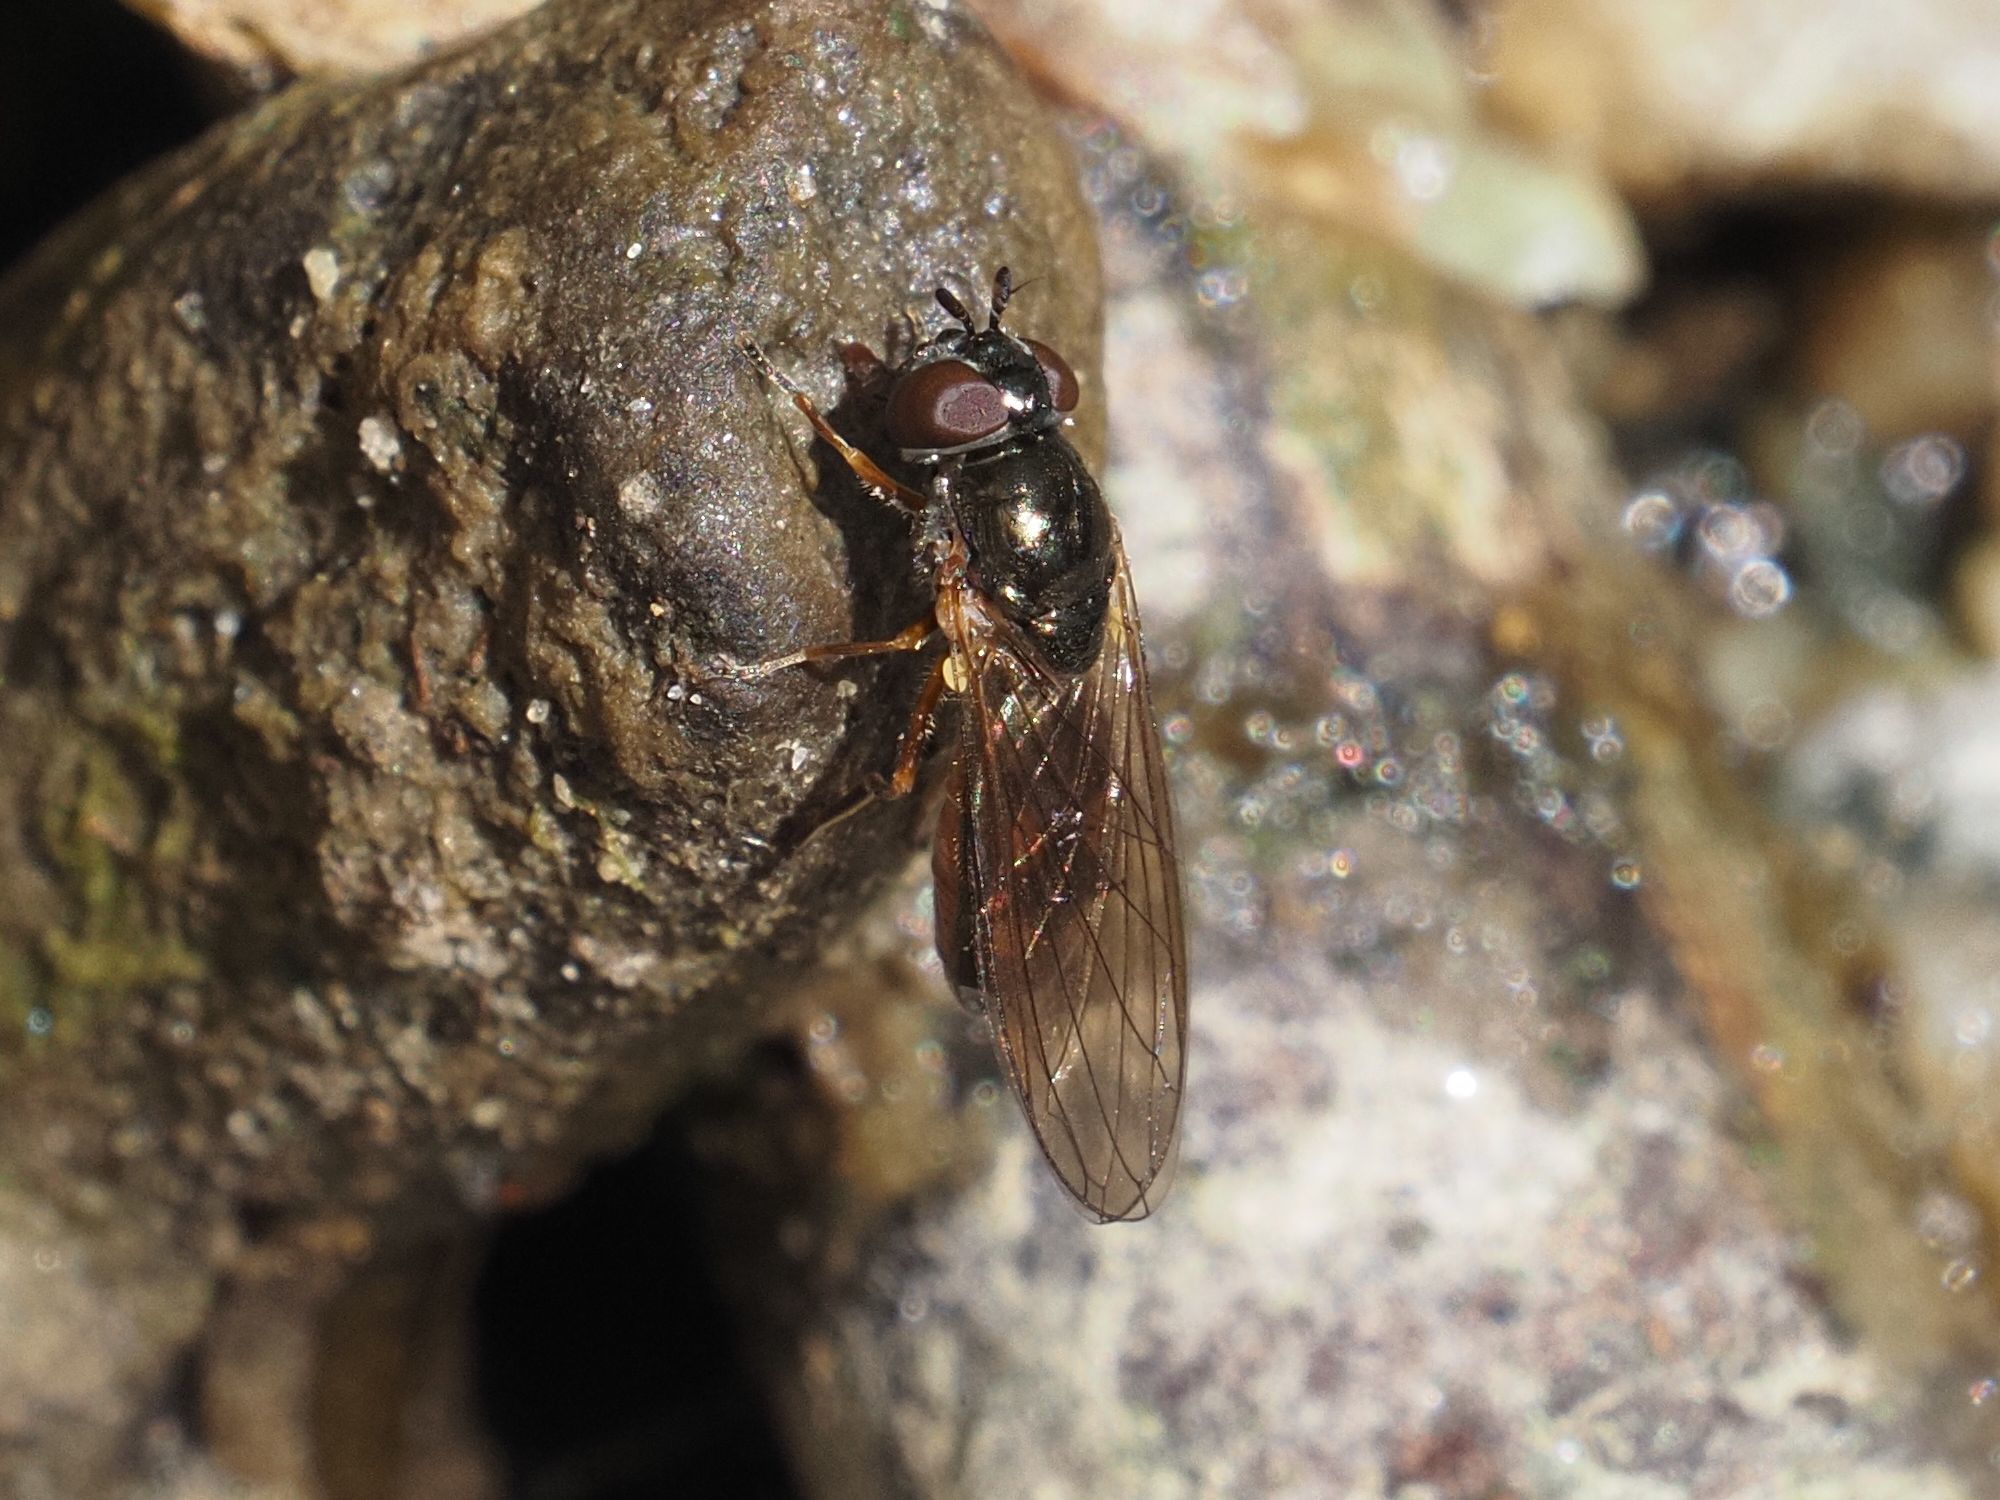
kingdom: Animalia
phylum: Arthropoda
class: Insecta
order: Diptera
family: Syrphidae
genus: Melanostoma
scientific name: Melanostoma mellina
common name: Hover fly
